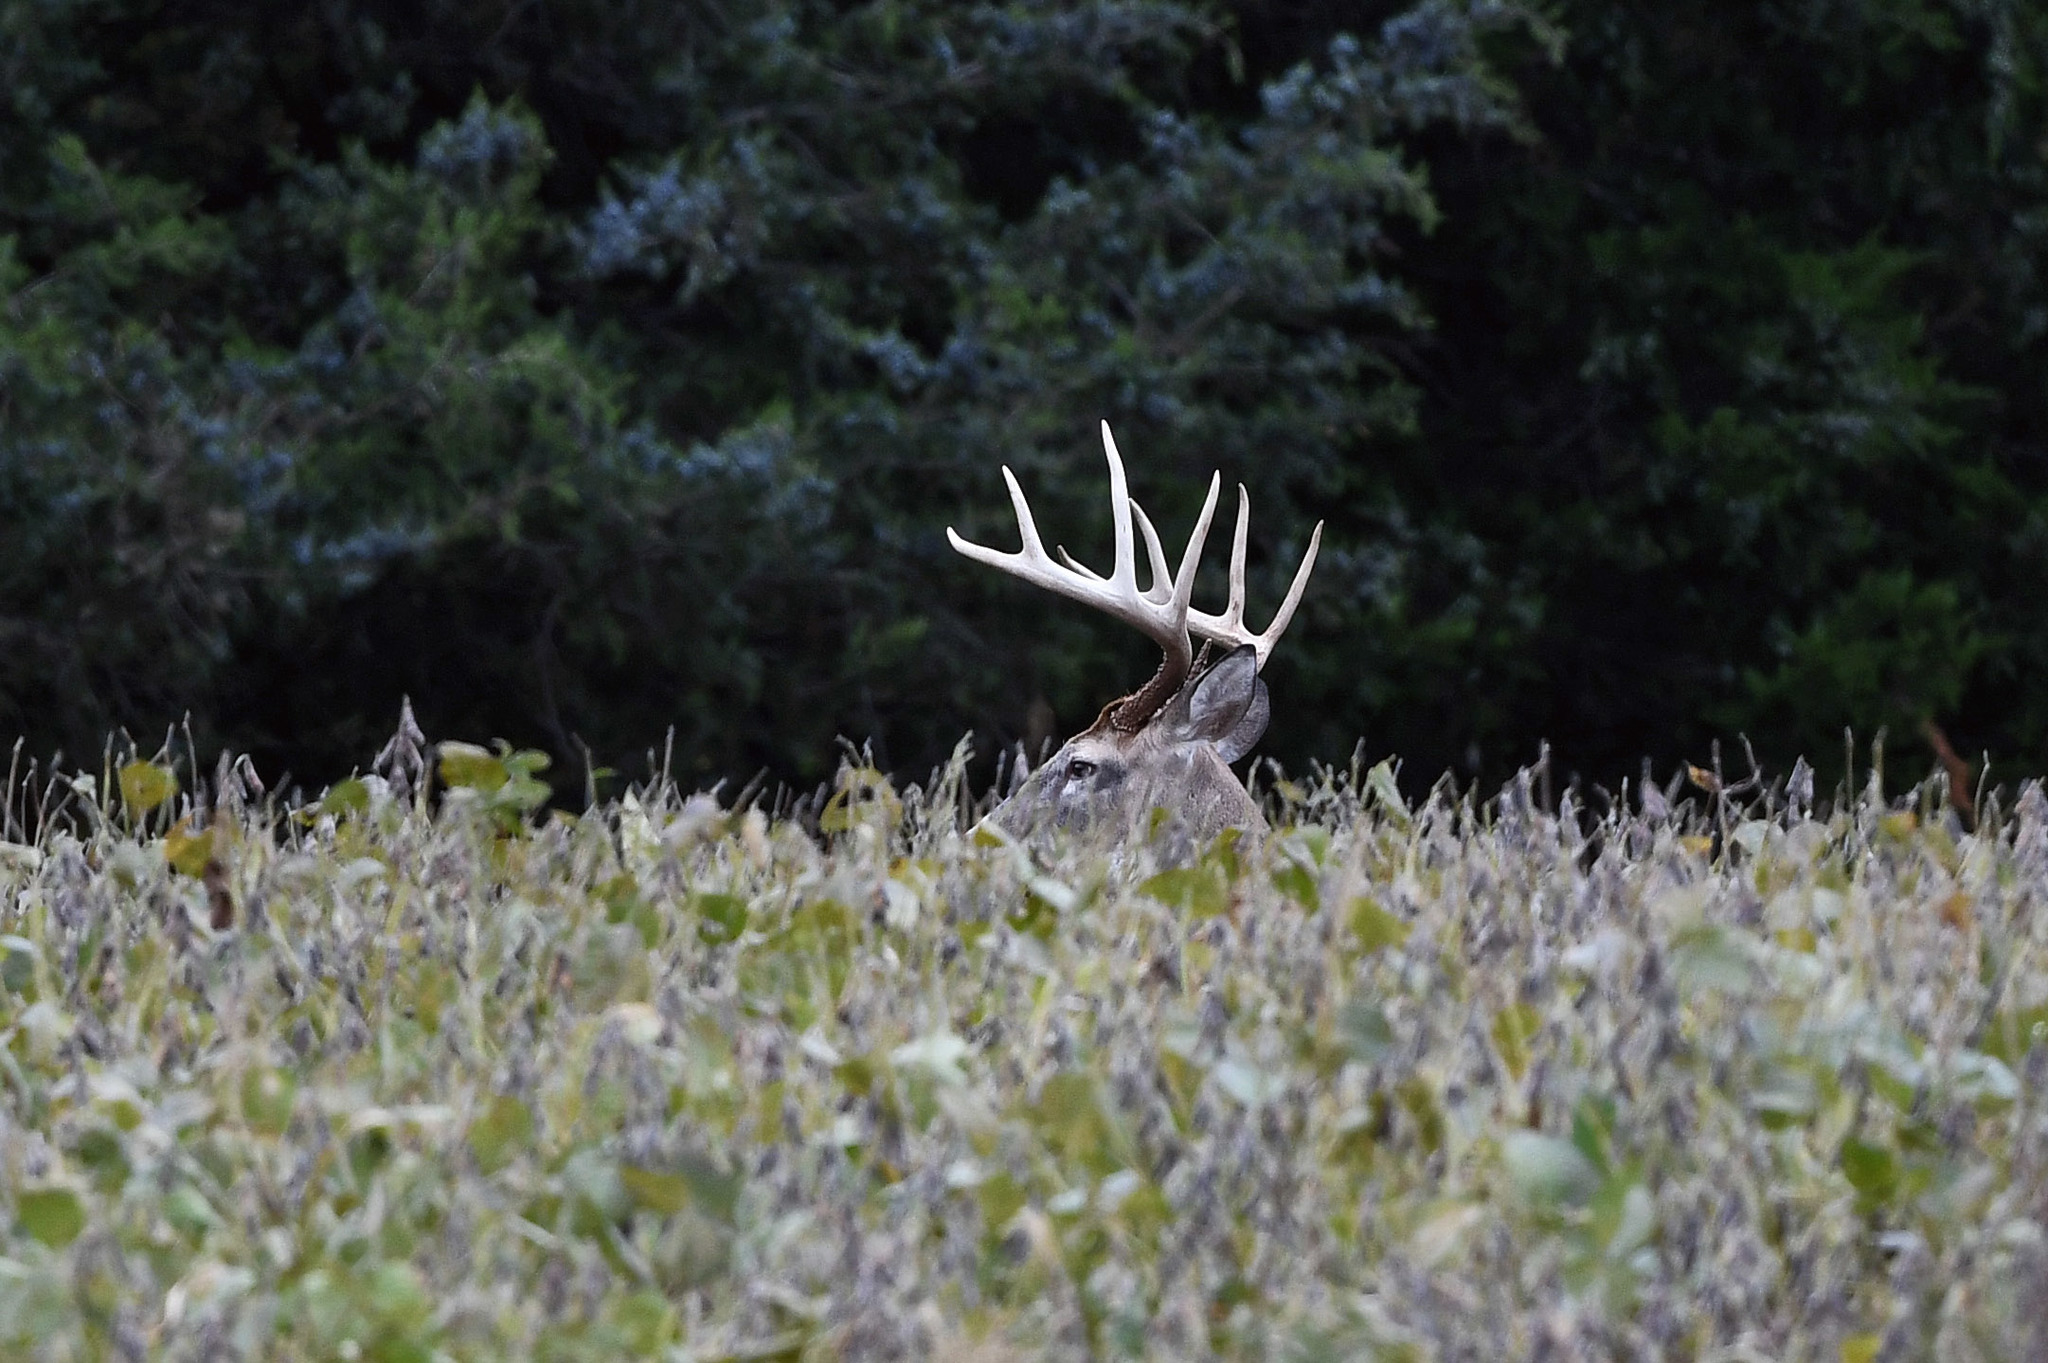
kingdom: Animalia
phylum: Chordata
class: Mammalia
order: Artiodactyla
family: Cervidae
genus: Odocoileus
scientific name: Odocoileus virginianus
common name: White-tailed deer
